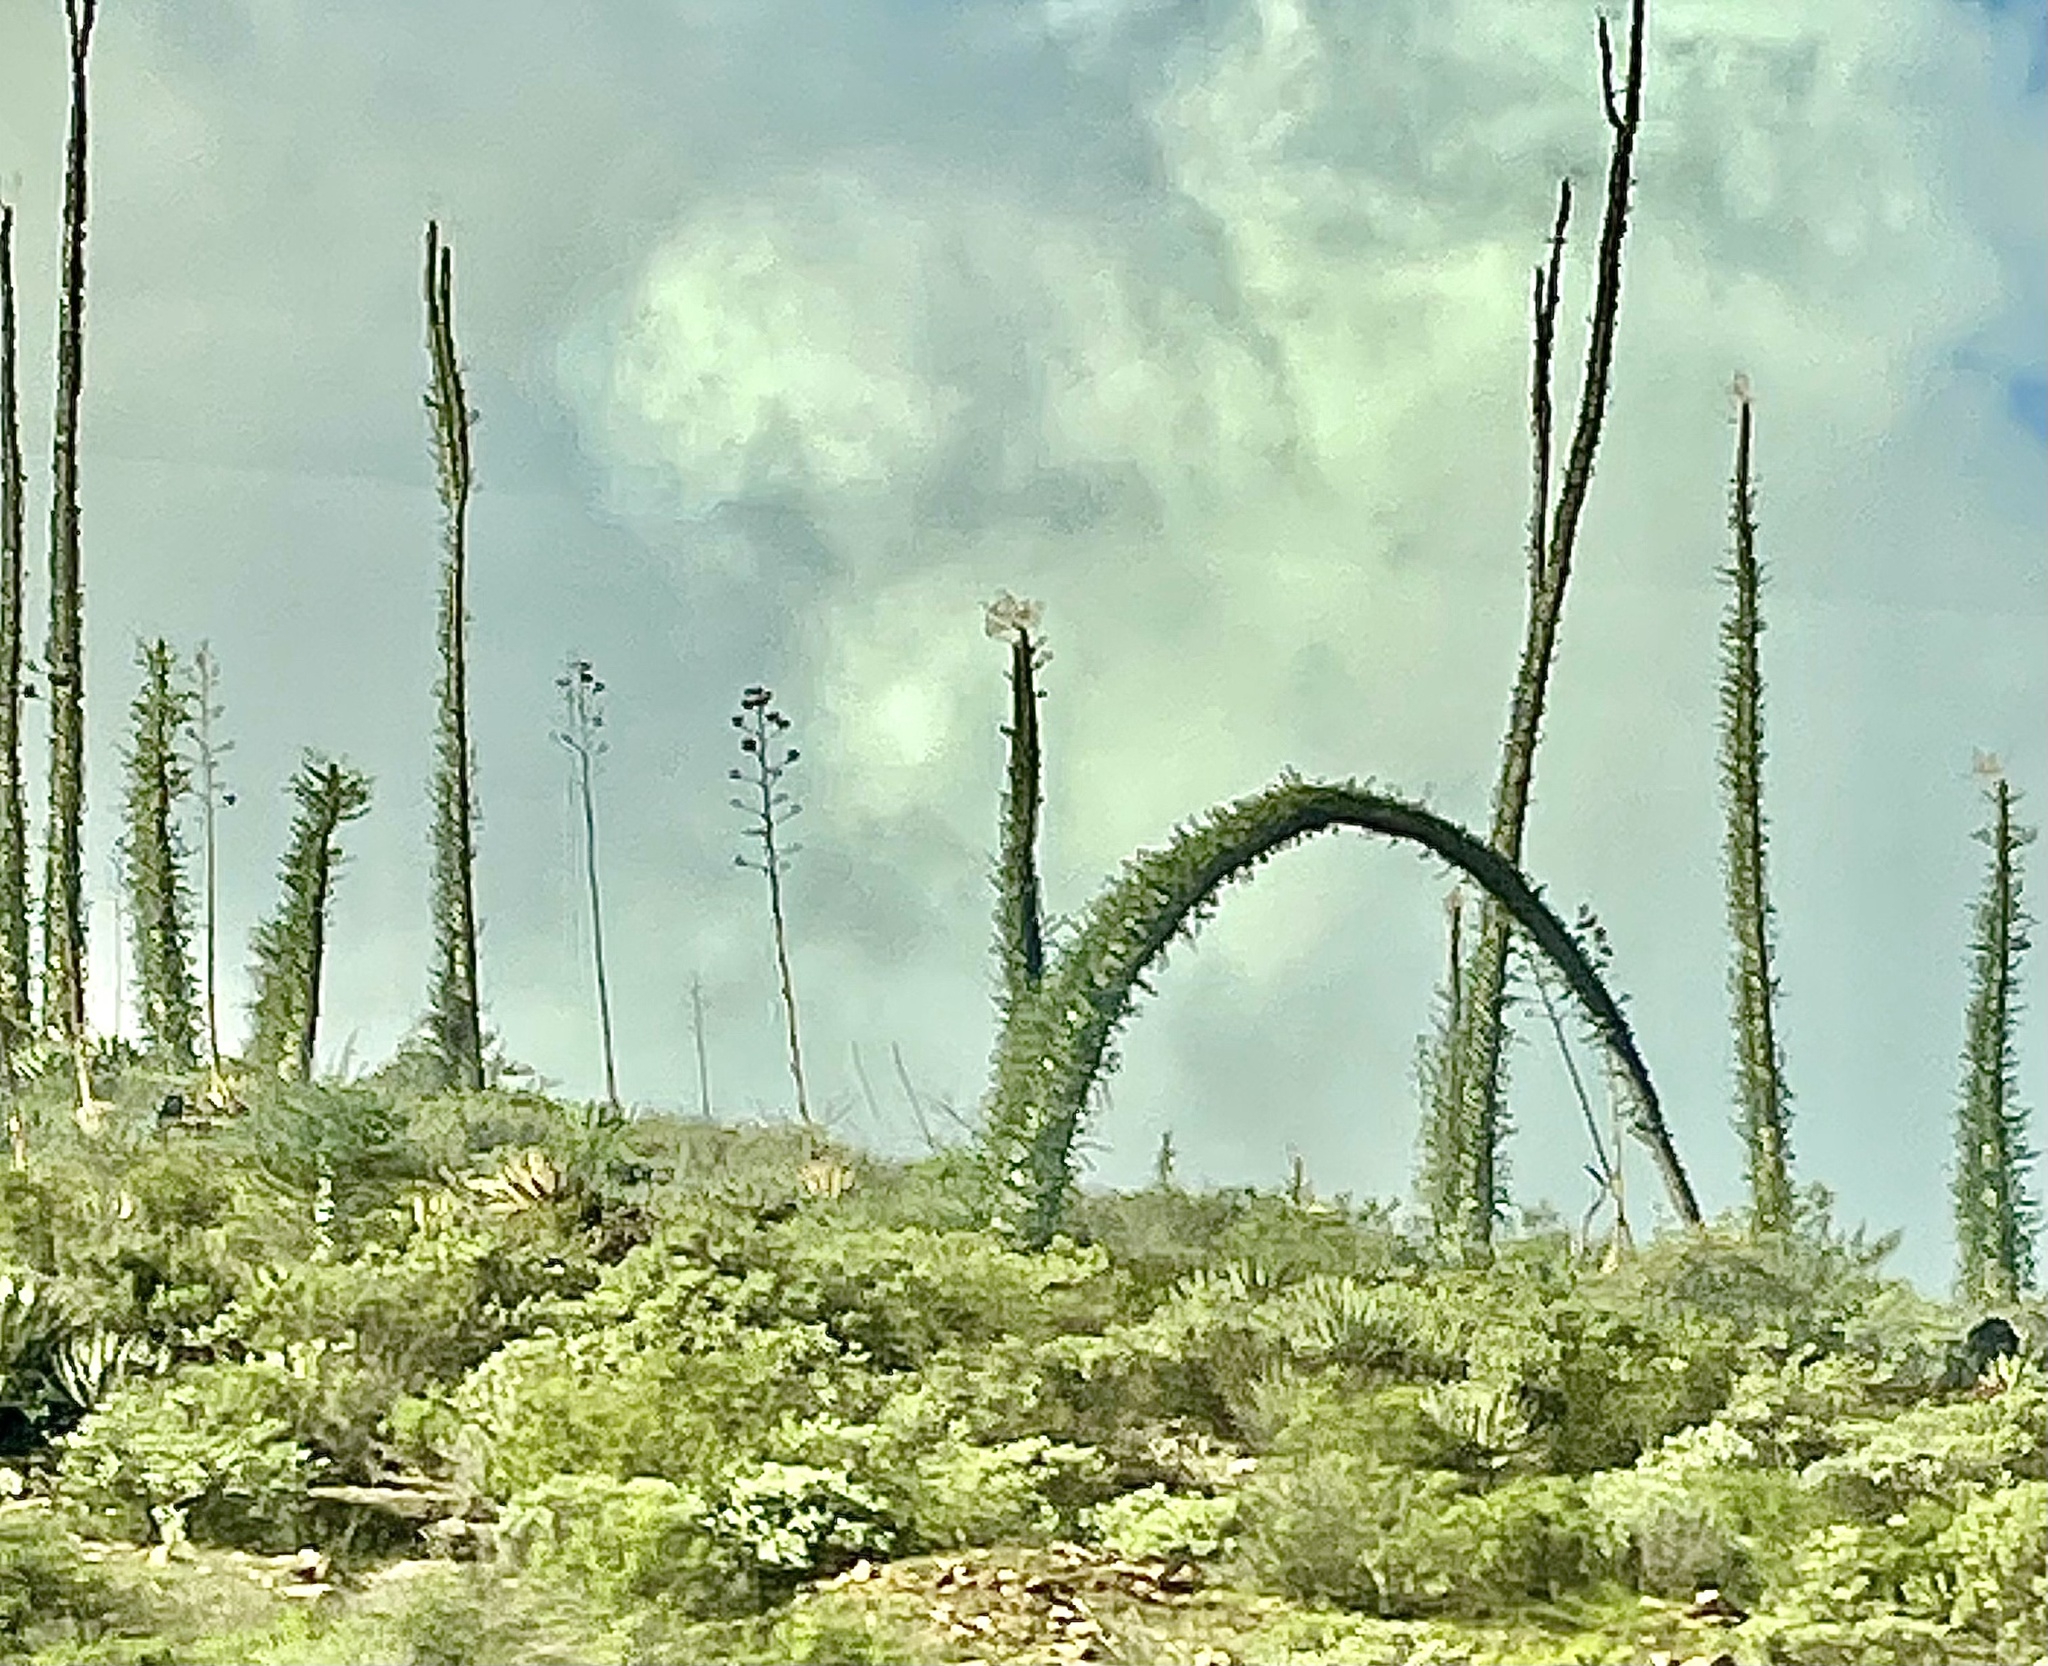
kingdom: Plantae
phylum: Tracheophyta
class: Magnoliopsida
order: Ericales
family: Fouquieriaceae
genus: Fouquieria
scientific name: Fouquieria columnaris
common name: Boojumtree
